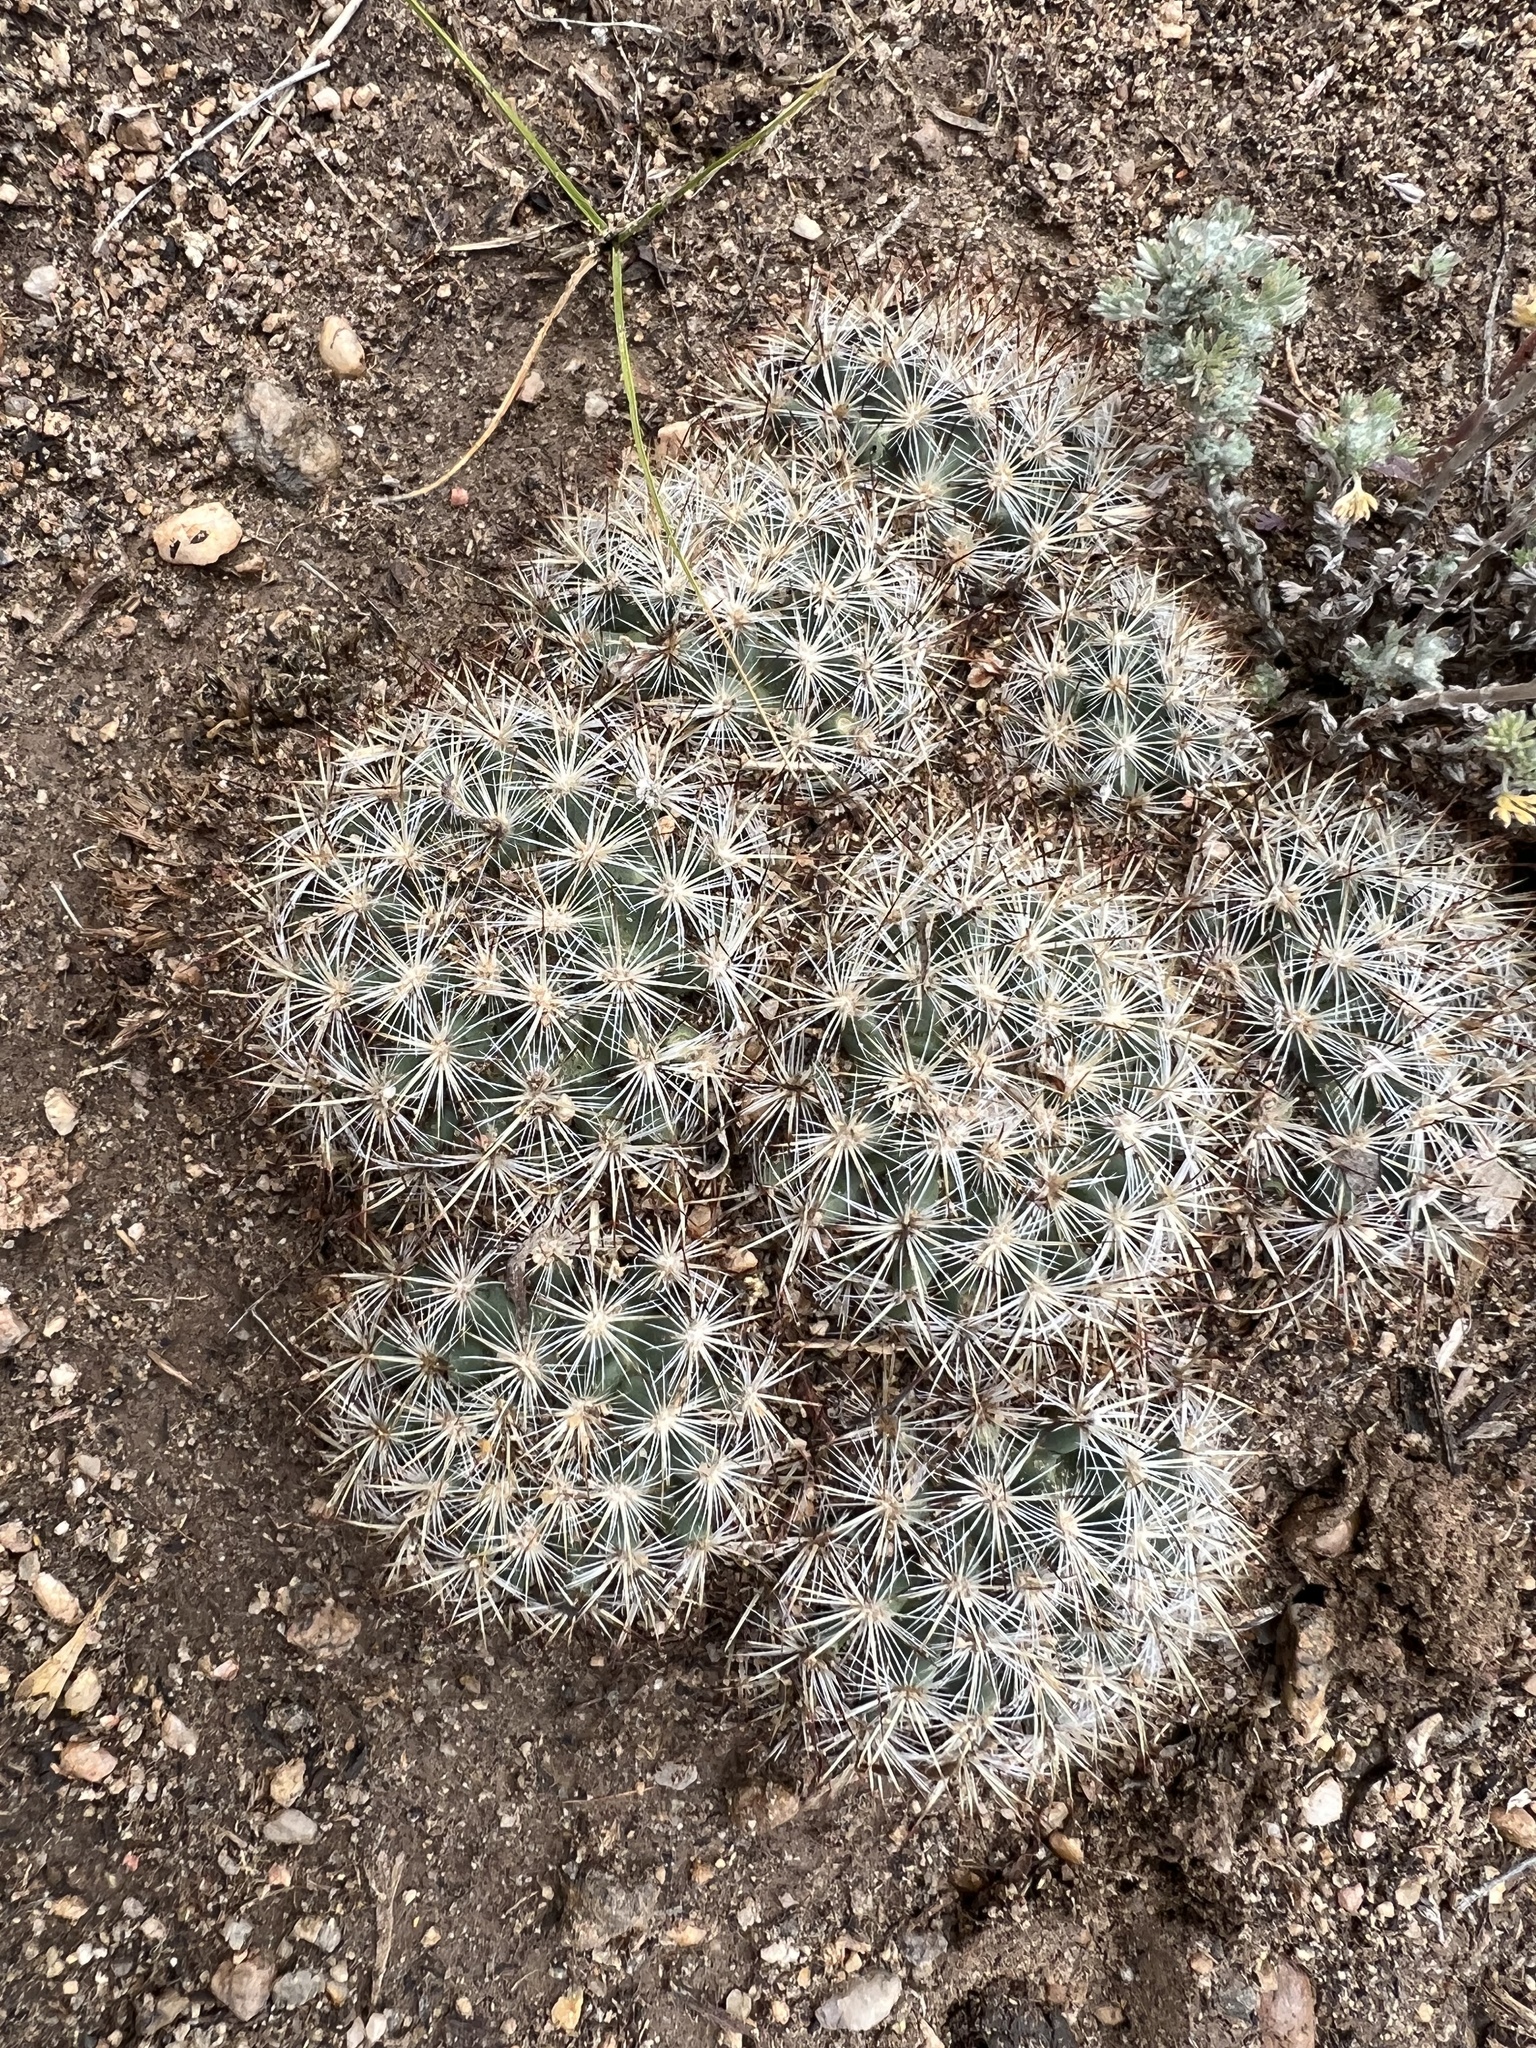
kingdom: Plantae
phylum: Tracheophyta
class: Magnoliopsida
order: Caryophyllales
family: Cactaceae
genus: Pediocactus
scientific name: Pediocactus simpsonii
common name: Simpson's hedgehog cactus
